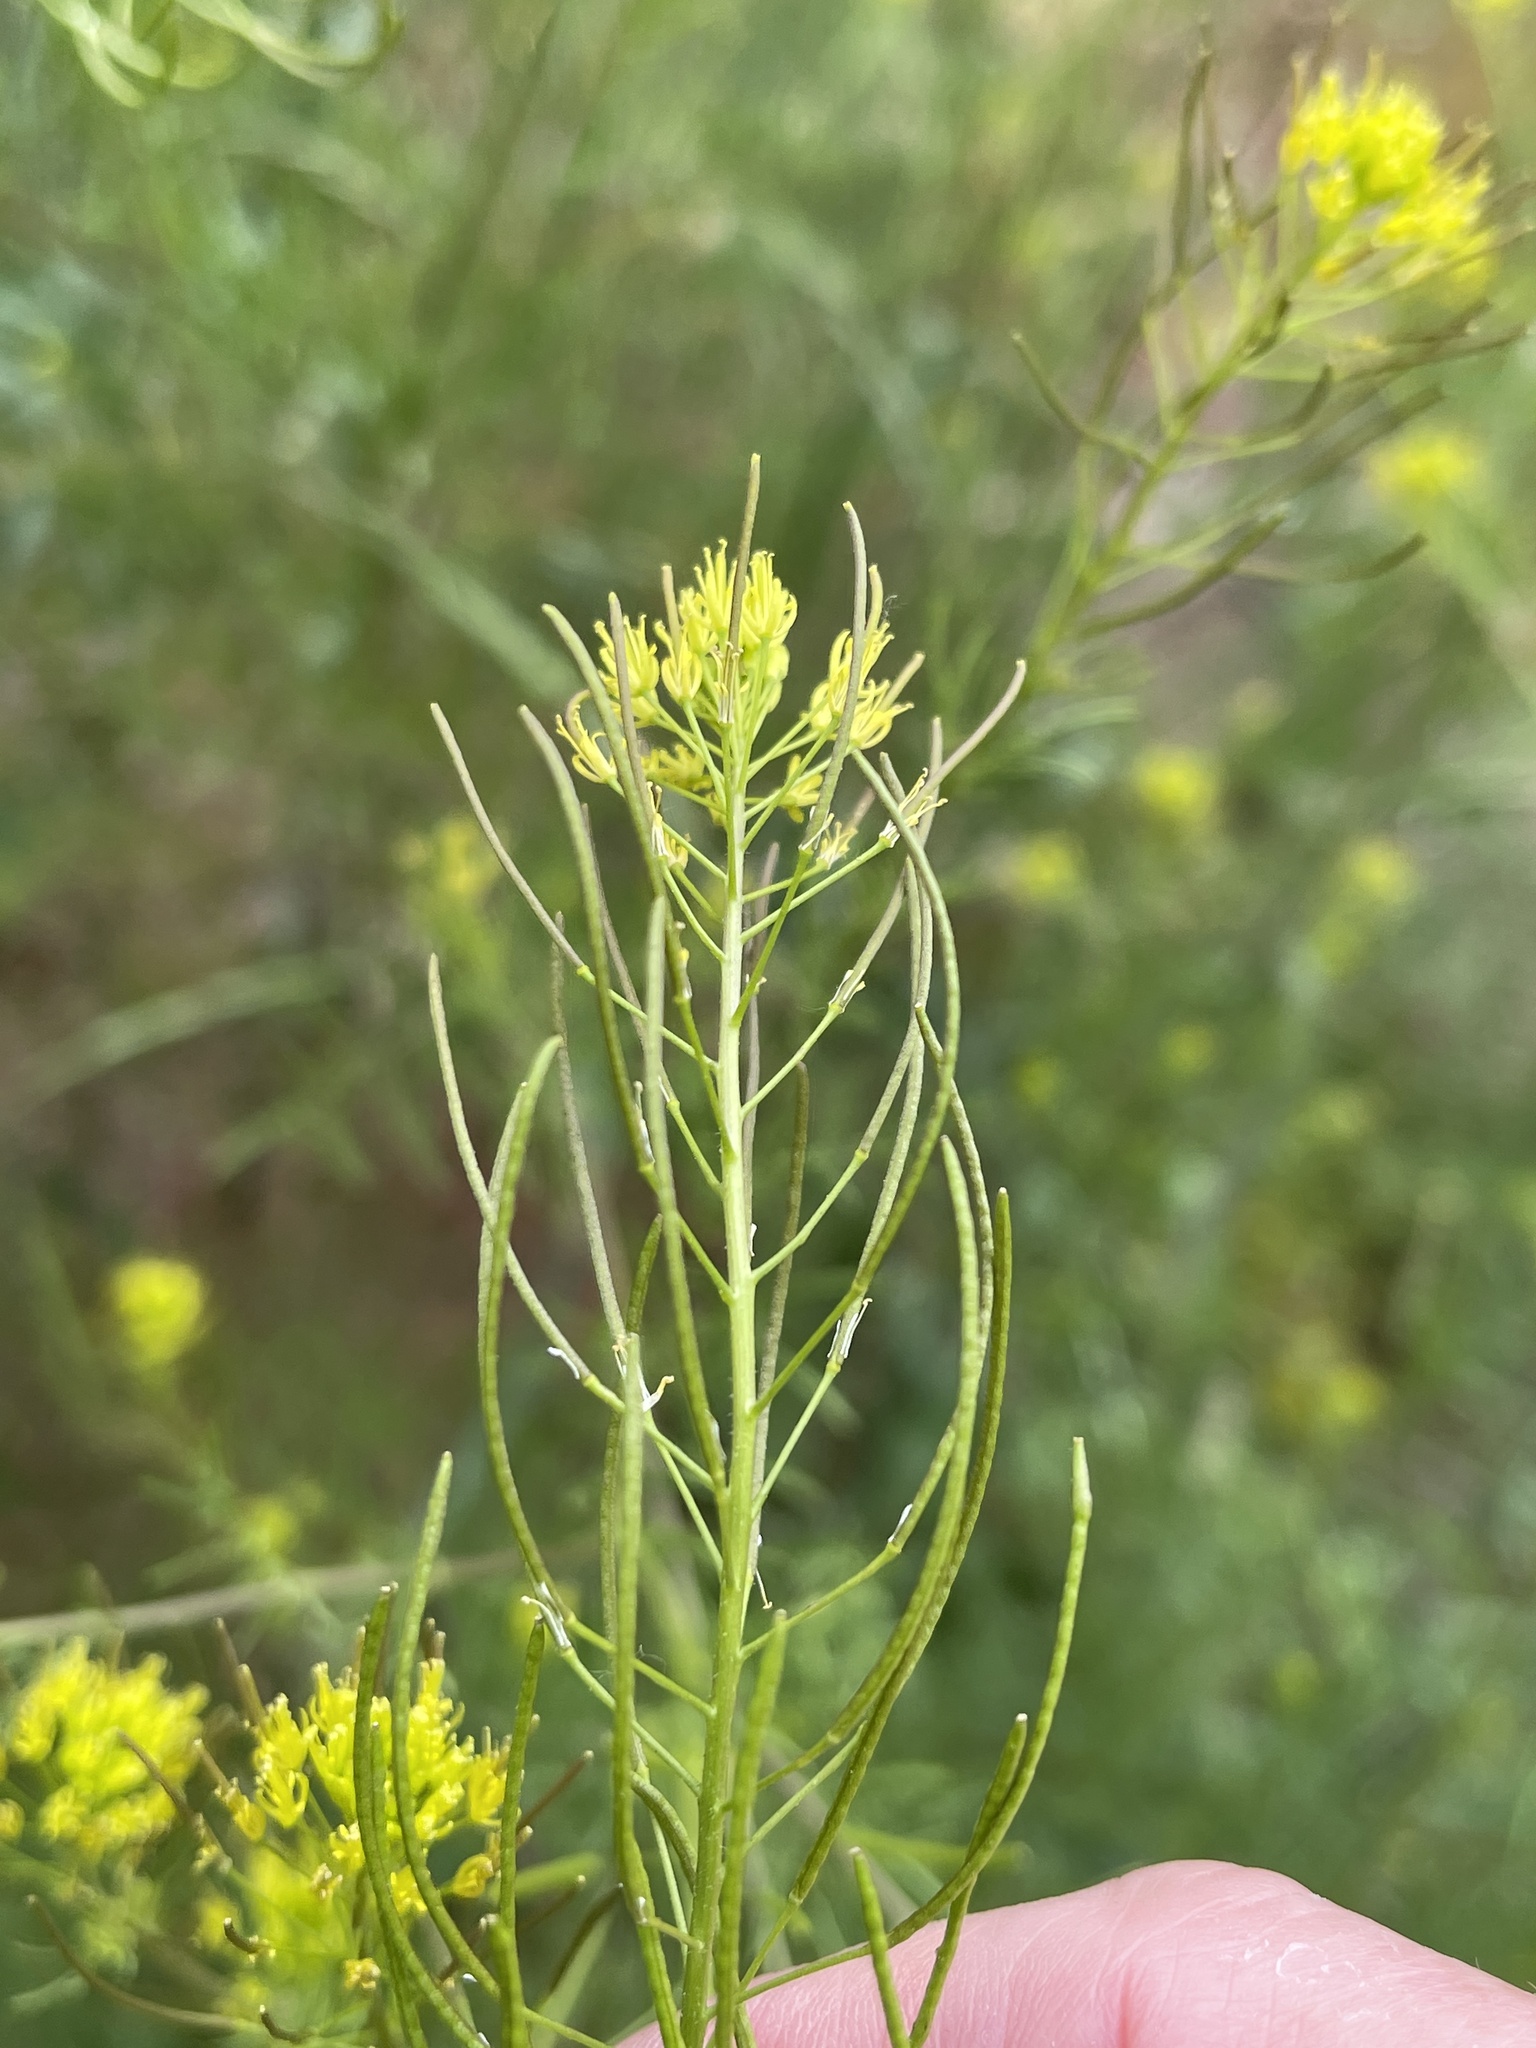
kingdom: Plantae
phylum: Tracheophyta
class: Magnoliopsida
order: Brassicales
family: Brassicaceae
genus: Descurainia
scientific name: Descurainia sophia
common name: Flixweed
